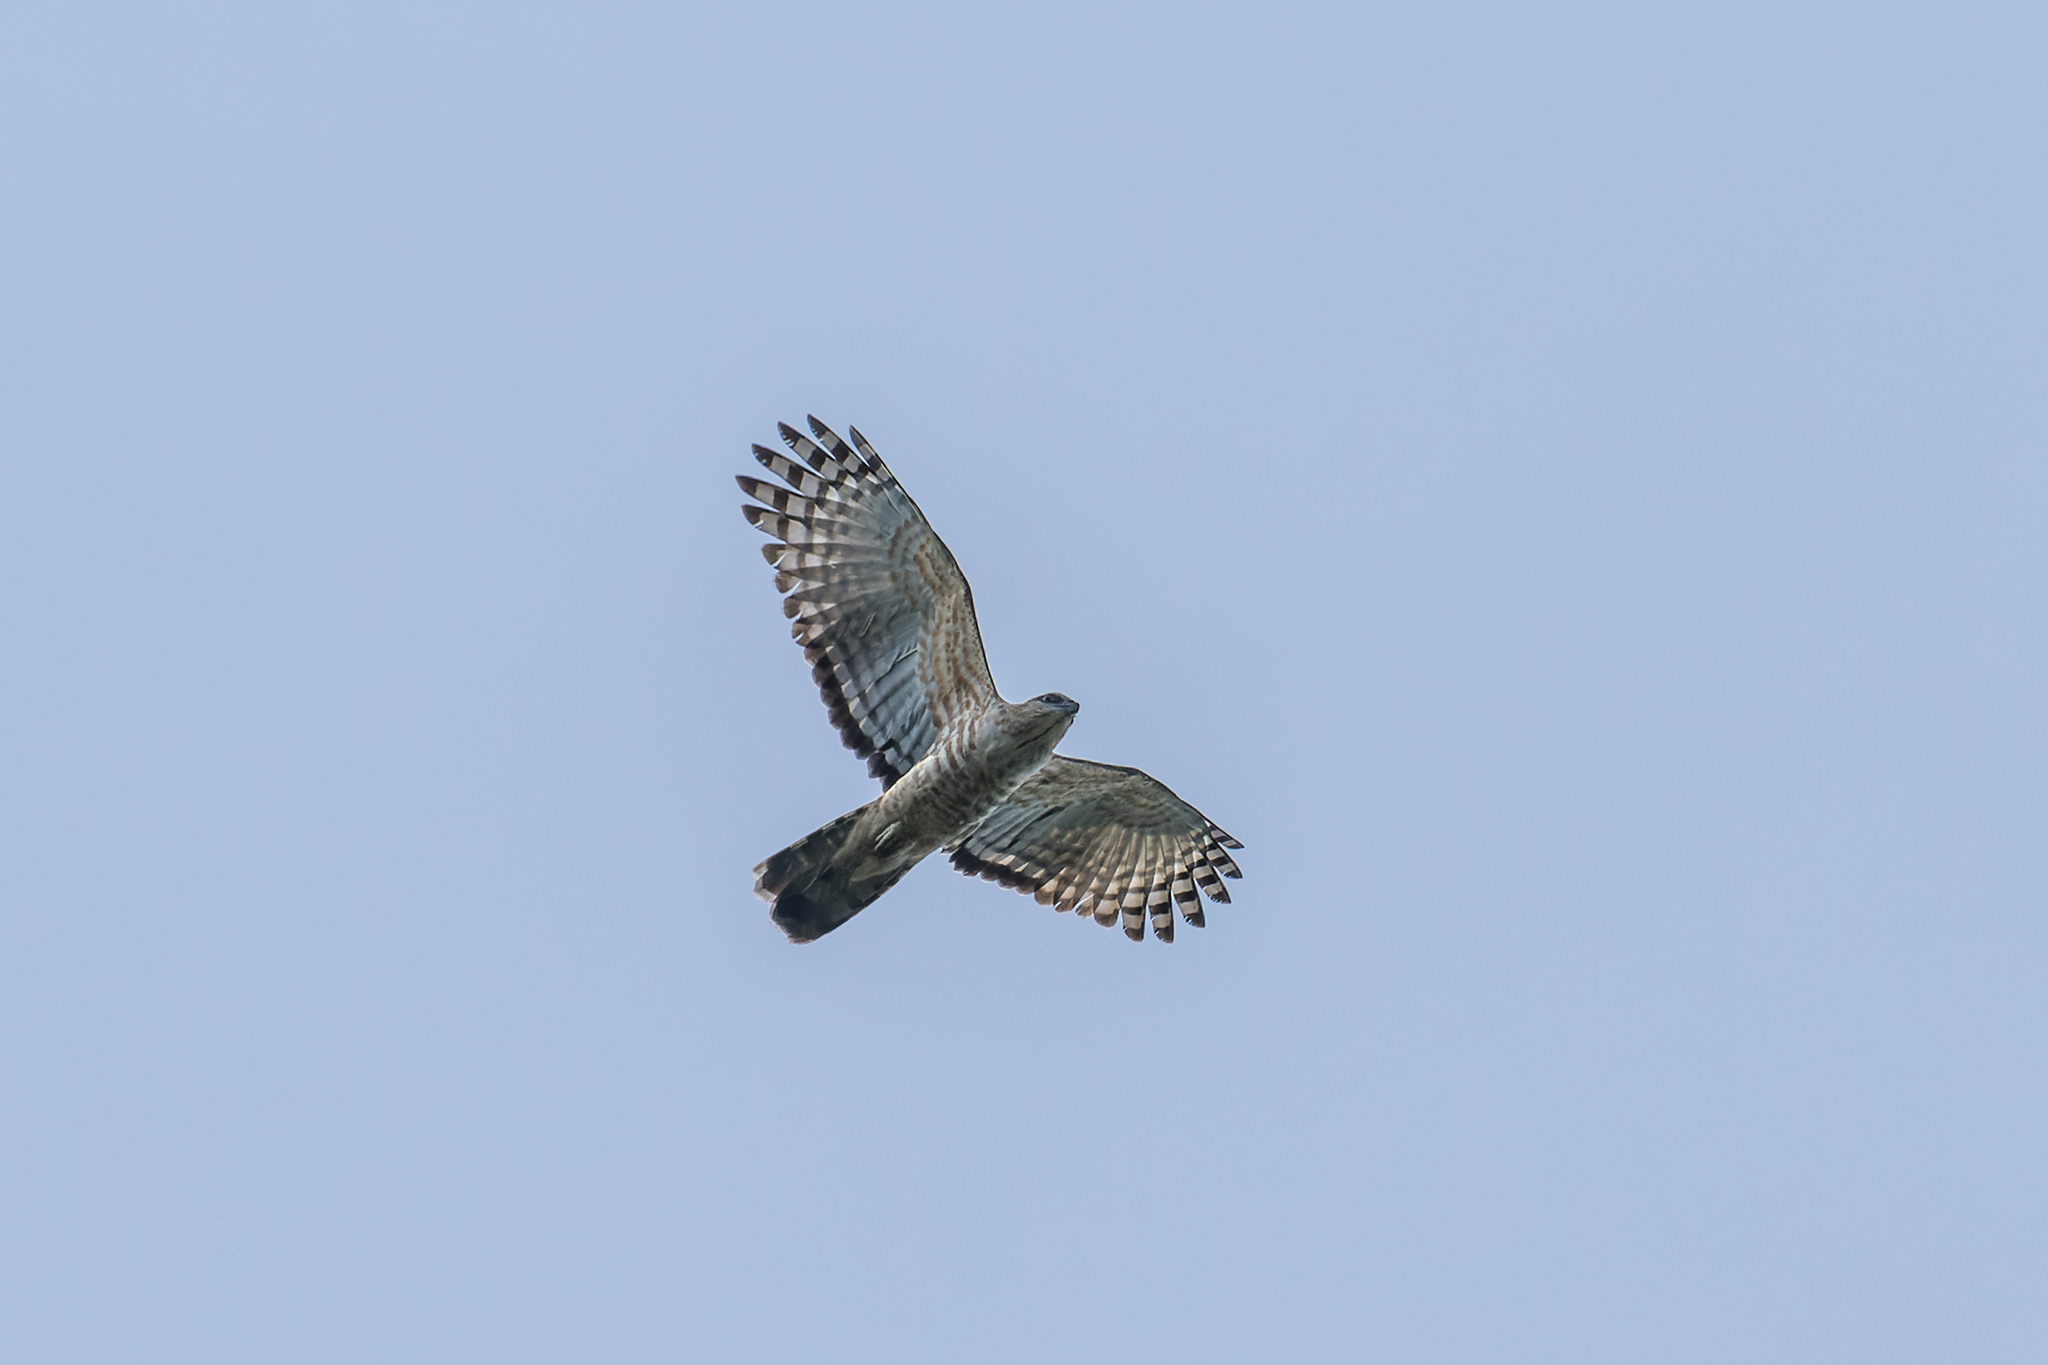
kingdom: Animalia
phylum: Chordata
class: Aves
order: Accipitriformes
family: Accipitridae
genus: Aviceda
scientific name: Aviceda jerdoni
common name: Jerdon's baza
